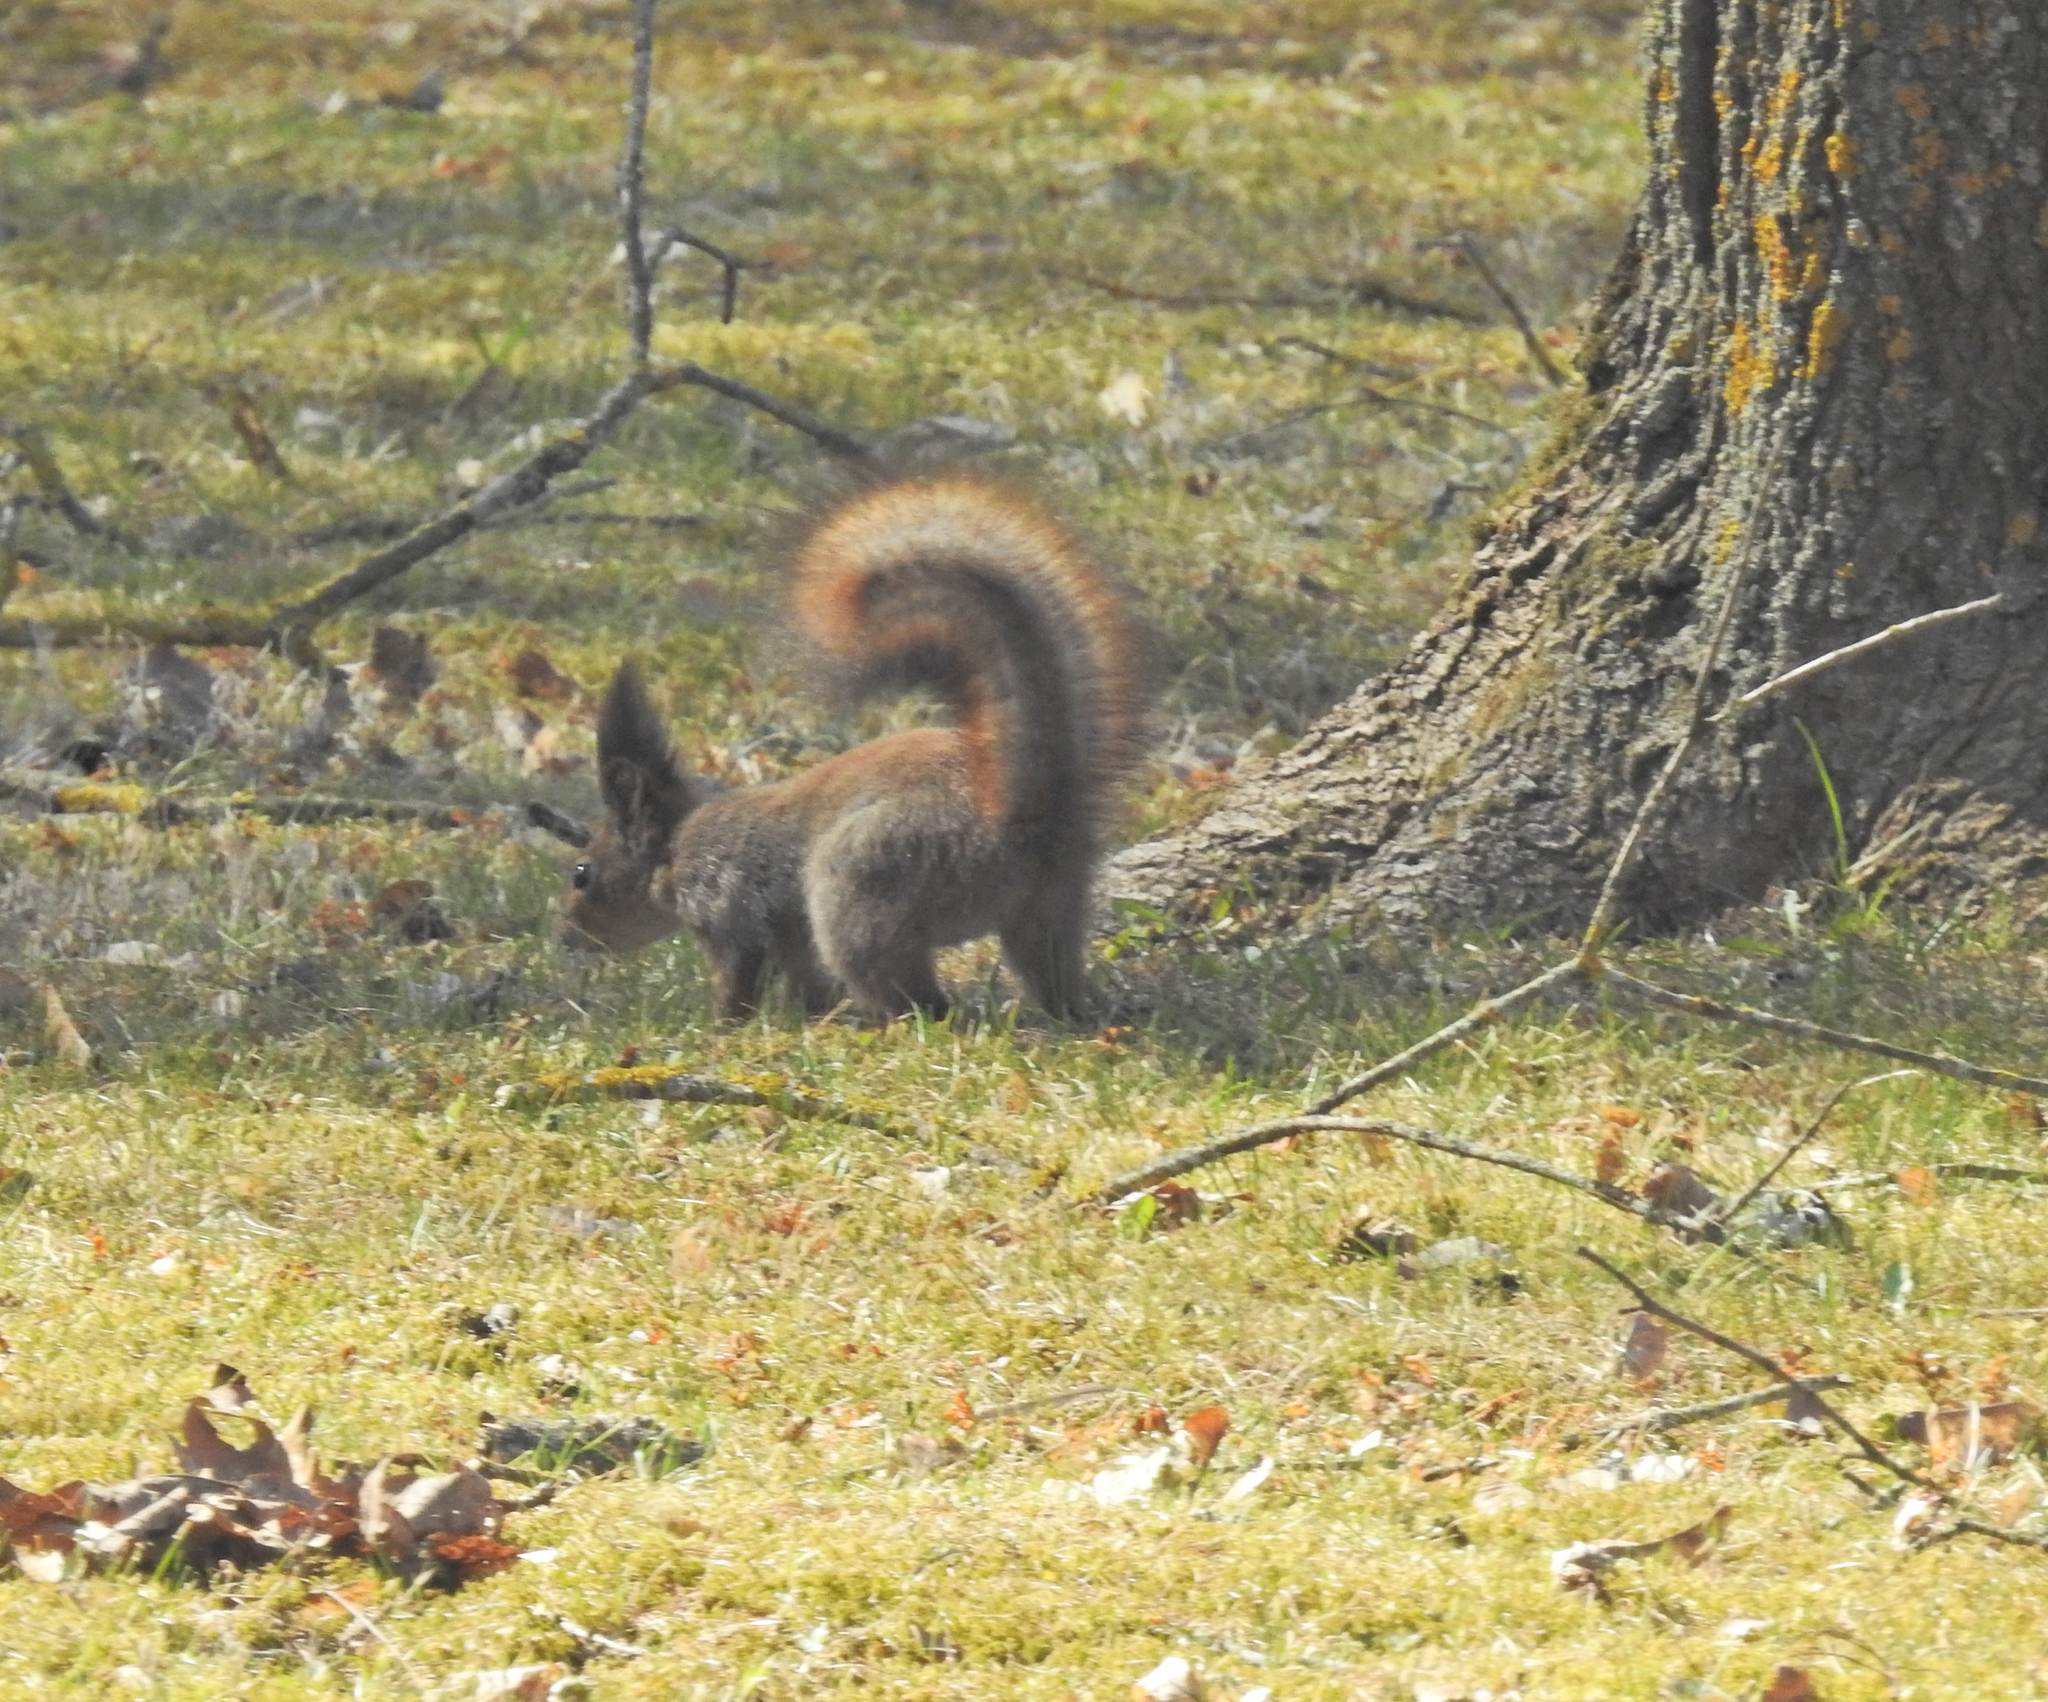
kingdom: Animalia
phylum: Chordata
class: Mammalia
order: Rodentia
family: Sciuridae
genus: Sciurus
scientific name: Sciurus vulgaris
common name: Eurasian red squirrel
